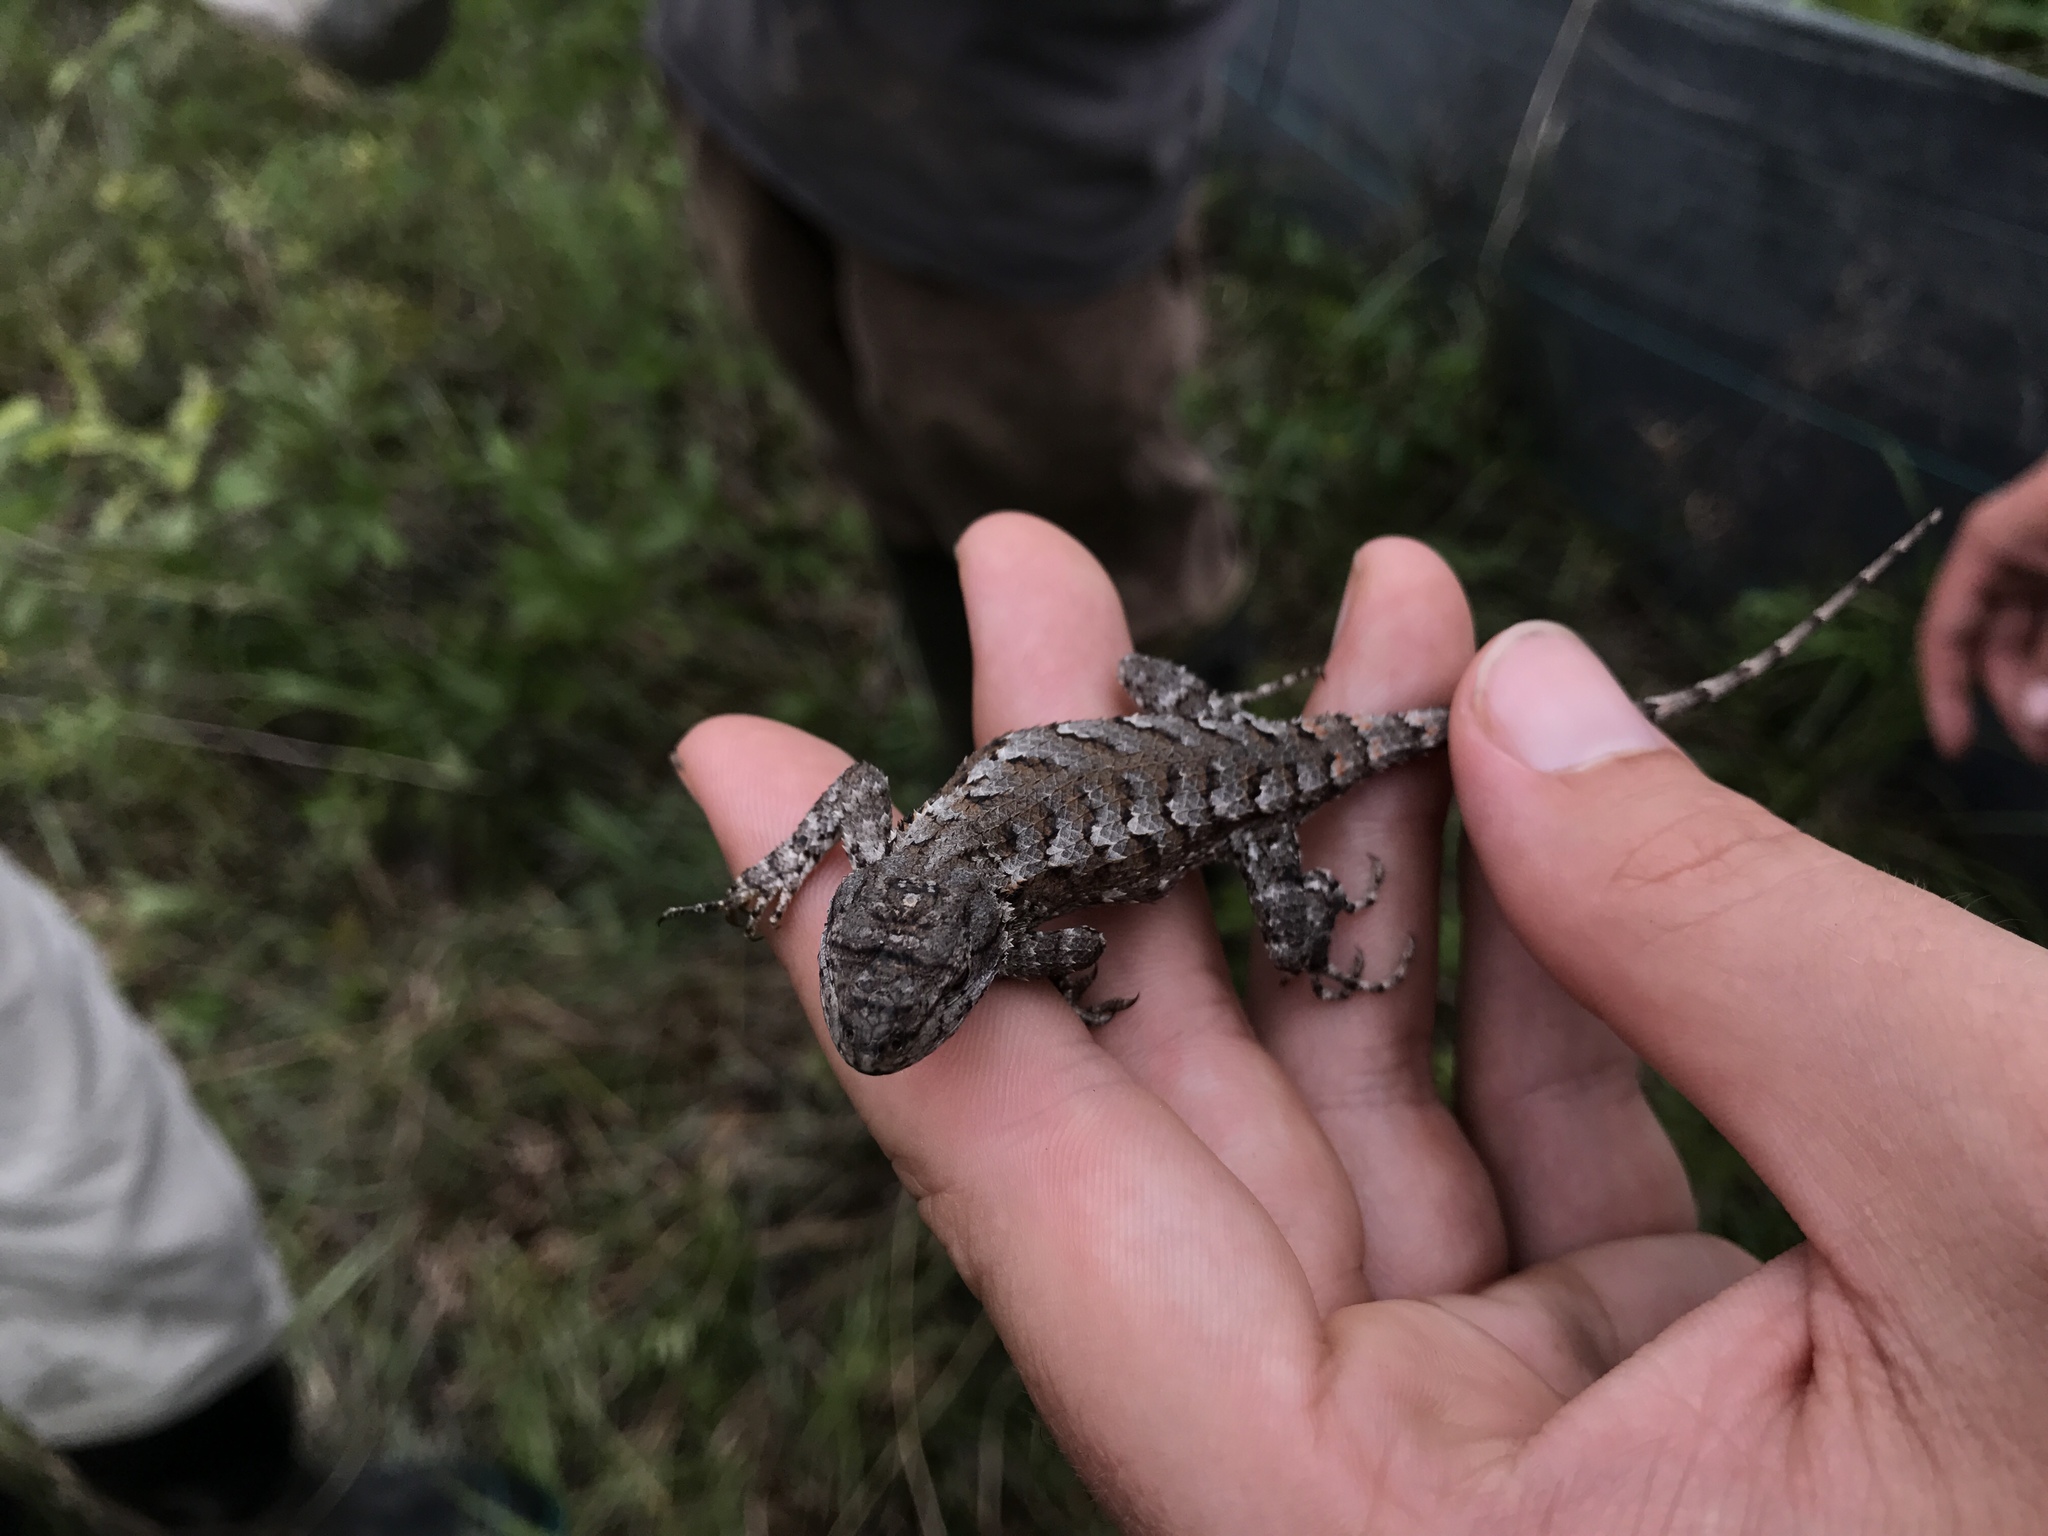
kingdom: Animalia
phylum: Chordata
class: Squamata
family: Phrynosomatidae
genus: Sceloporus
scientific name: Sceloporus consobrinus
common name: Southern prairie lizard
